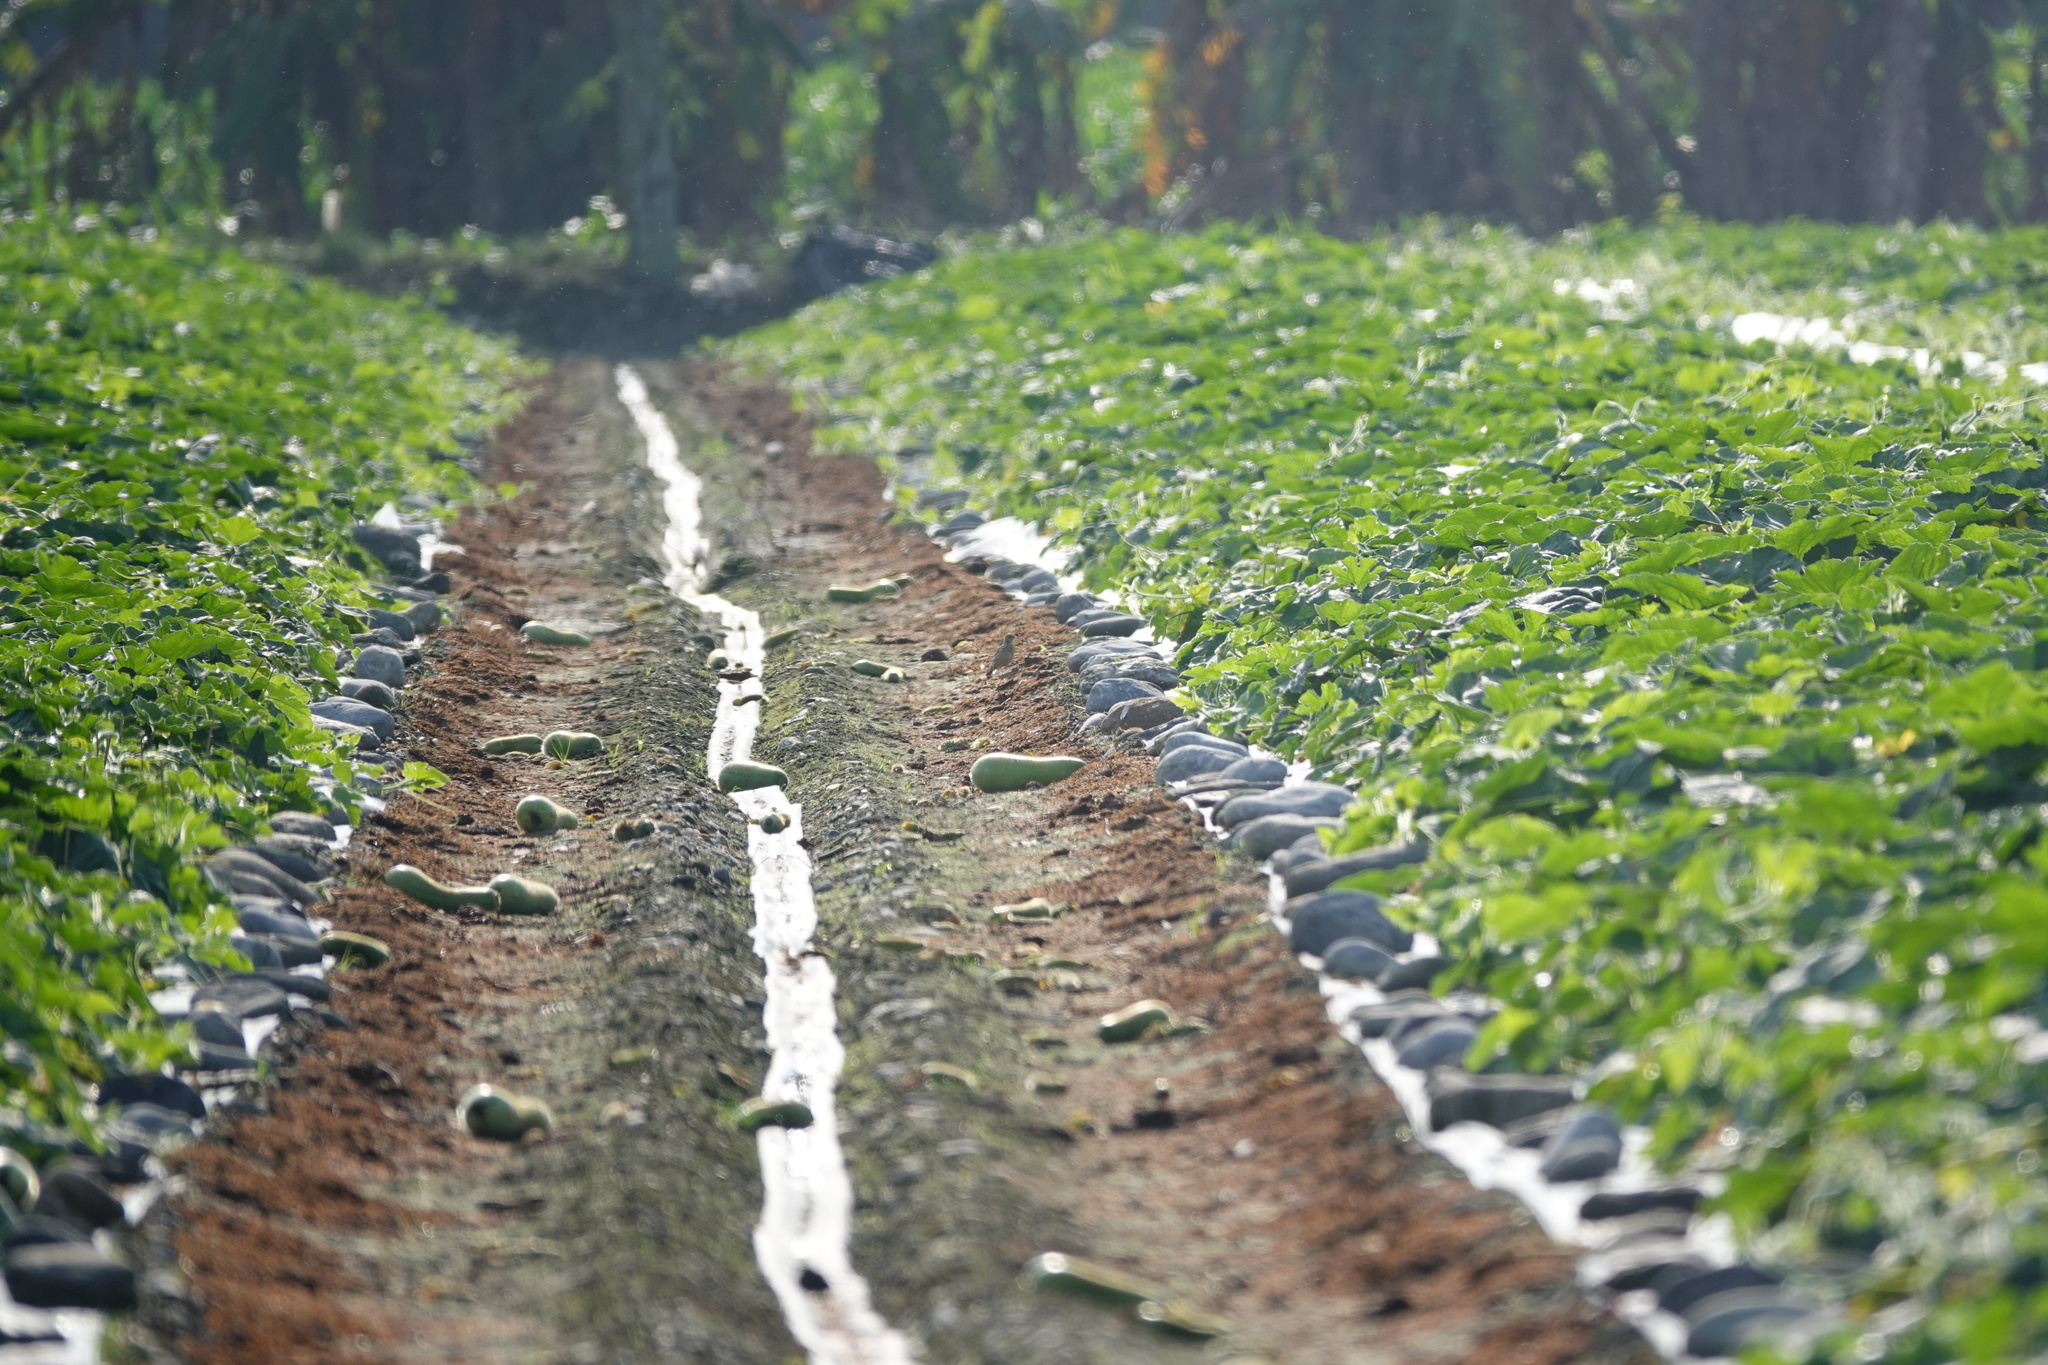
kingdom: Animalia
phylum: Chordata
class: Aves
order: Passeriformes
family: Motacillidae
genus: Anthus
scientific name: Anthus cervinus
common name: Red-throated pipit
